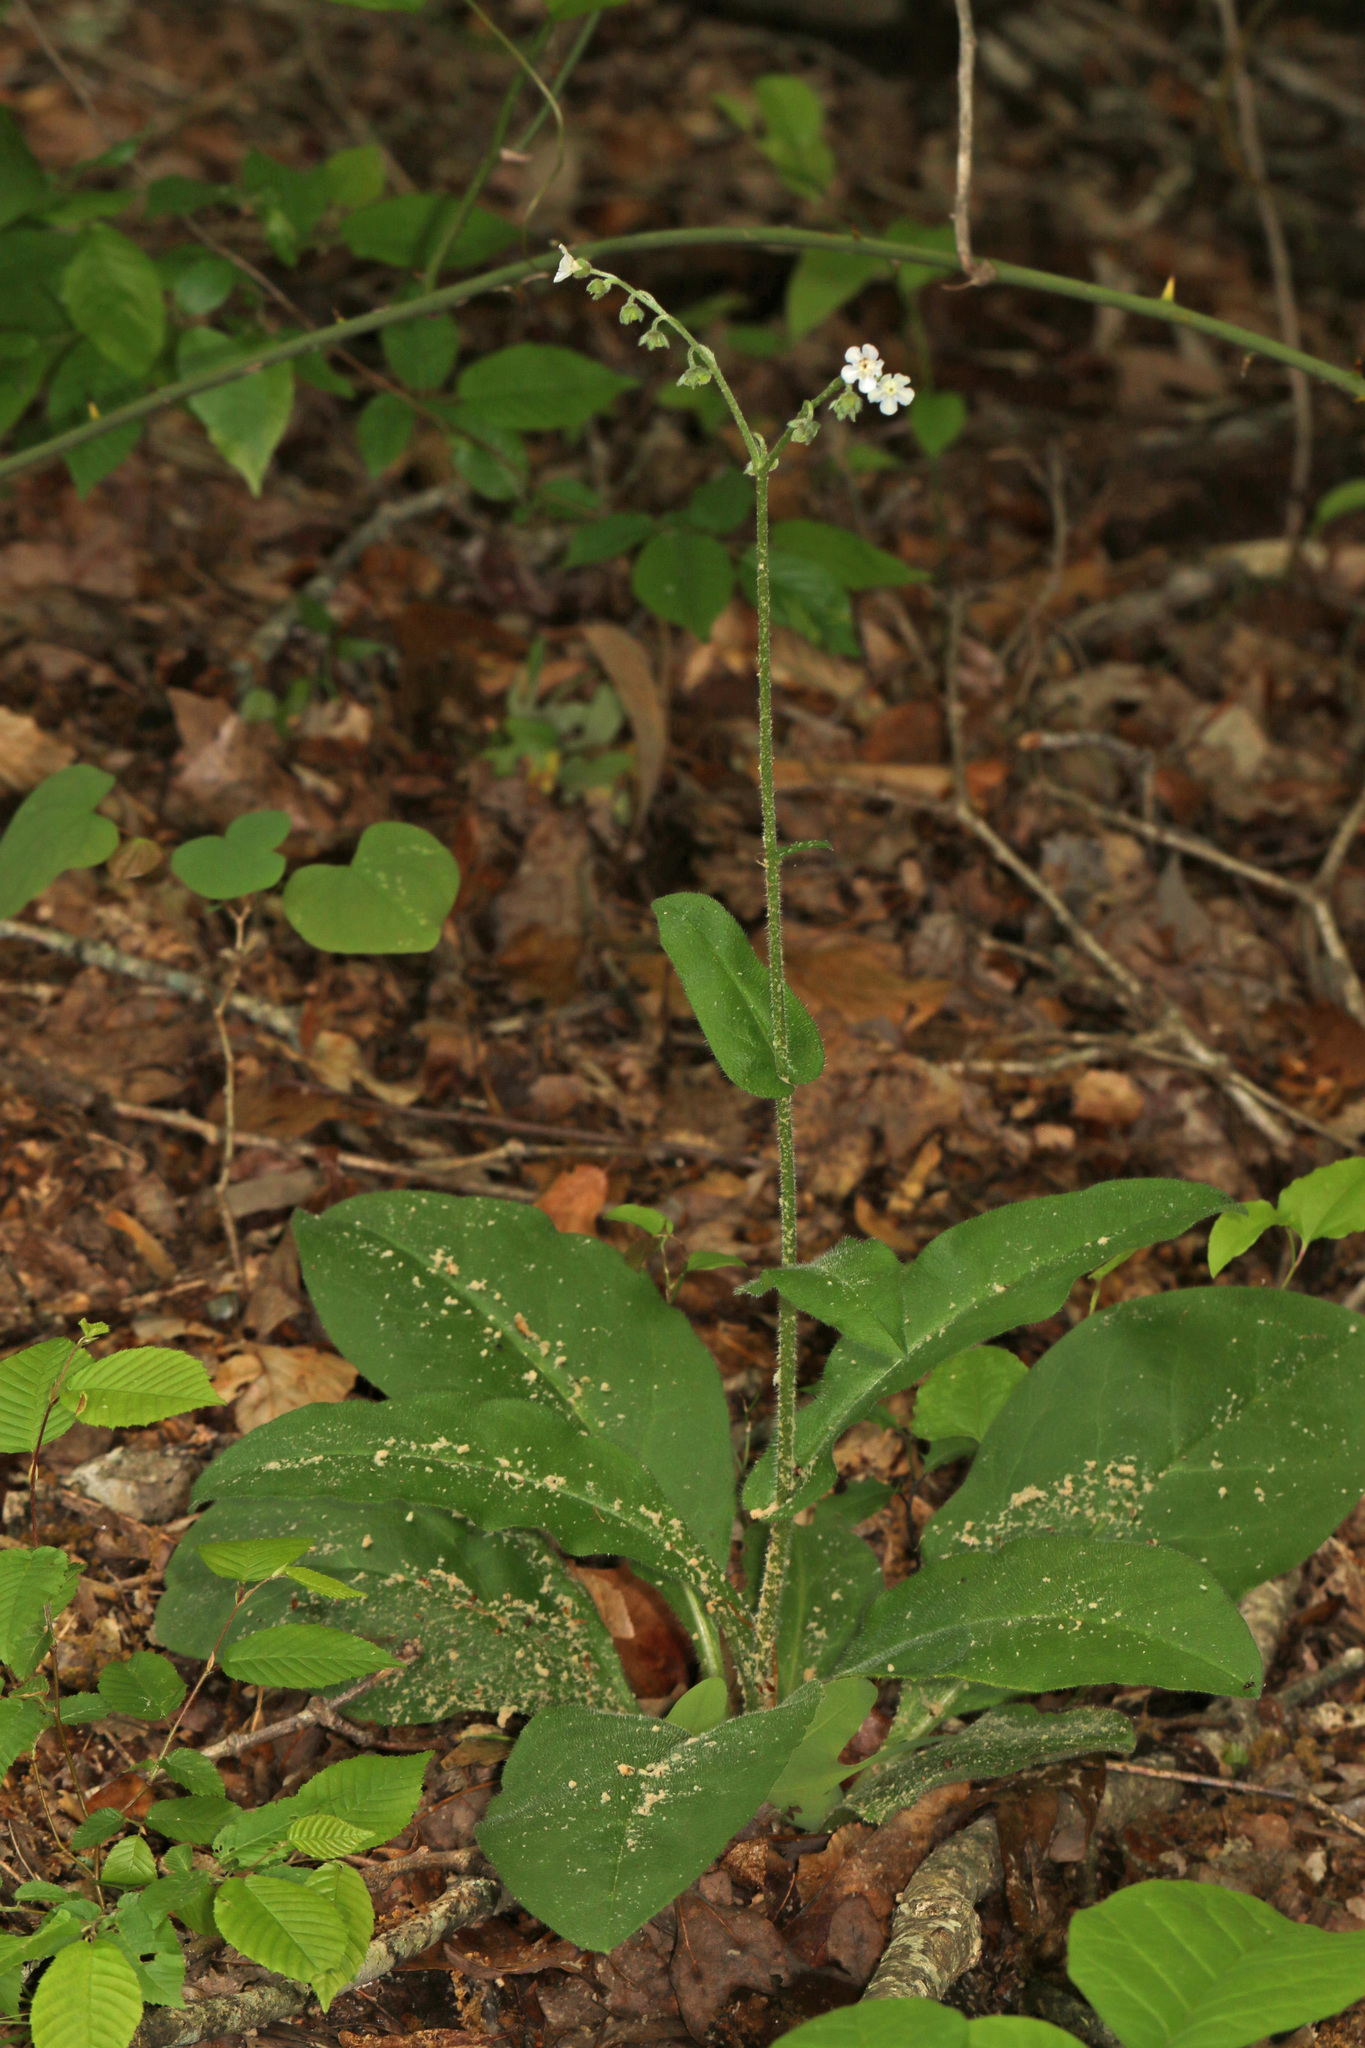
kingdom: Plantae
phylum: Tracheophyta
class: Magnoliopsida
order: Boraginales
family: Boraginaceae
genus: Andersonglossum
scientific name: Andersonglossum virginianum
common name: Wild comfrey
